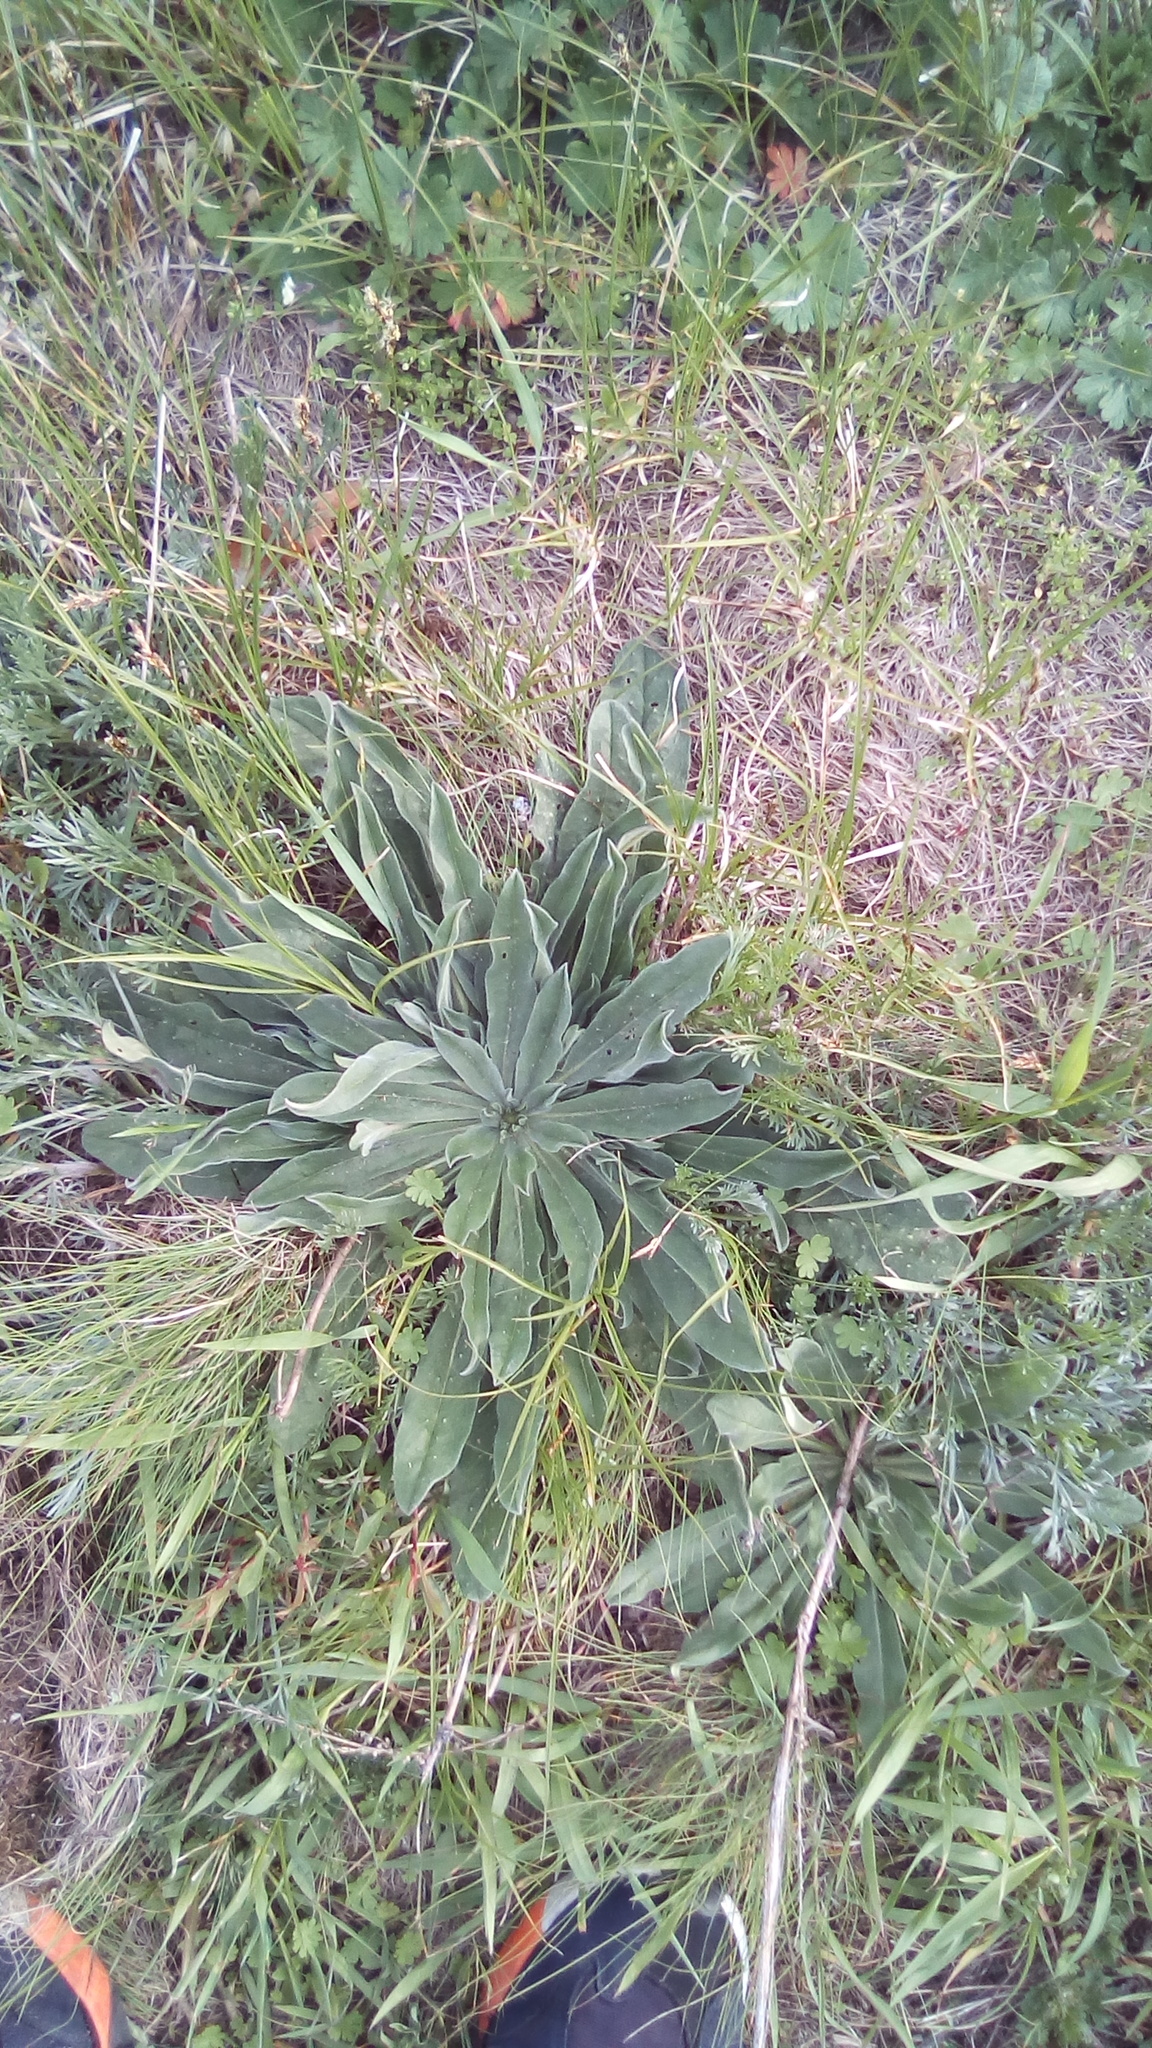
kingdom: Plantae
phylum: Tracheophyta
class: Magnoliopsida
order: Boraginales
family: Boraginaceae
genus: Echium
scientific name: Echium vulgare
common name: Common viper's bugloss
